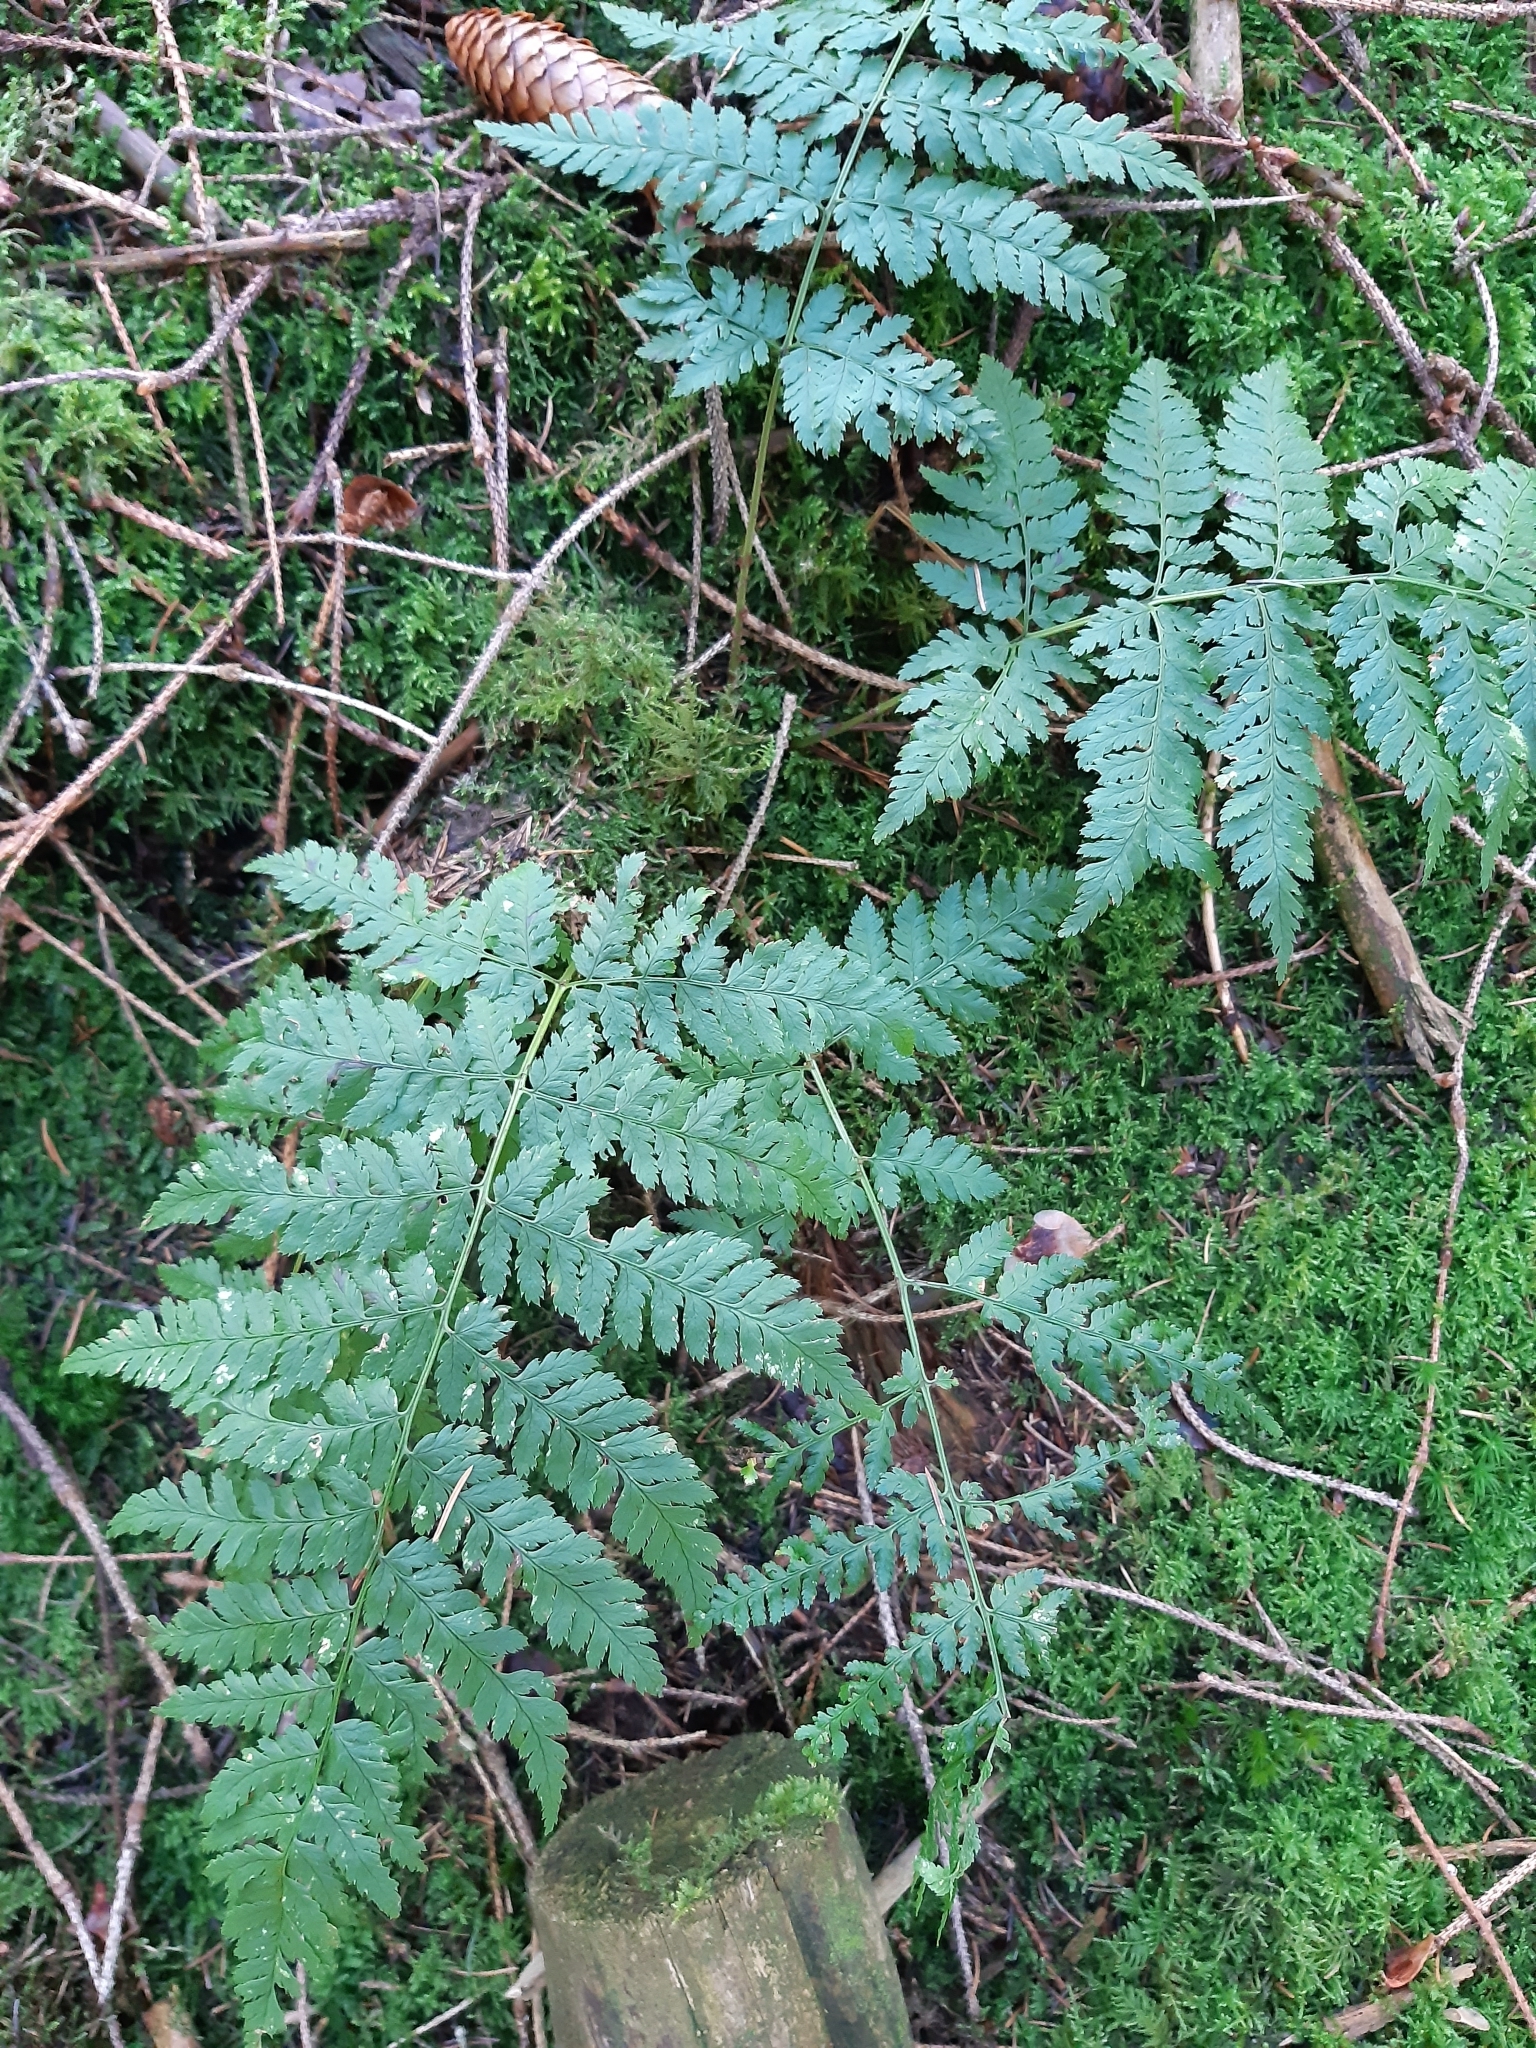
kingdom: Plantae
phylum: Tracheophyta
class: Polypodiopsida
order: Polypodiales
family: Dryopteridaceae
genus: Dryopteris
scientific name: Dryopteris carthusiana
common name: Narrow buckler-fern
